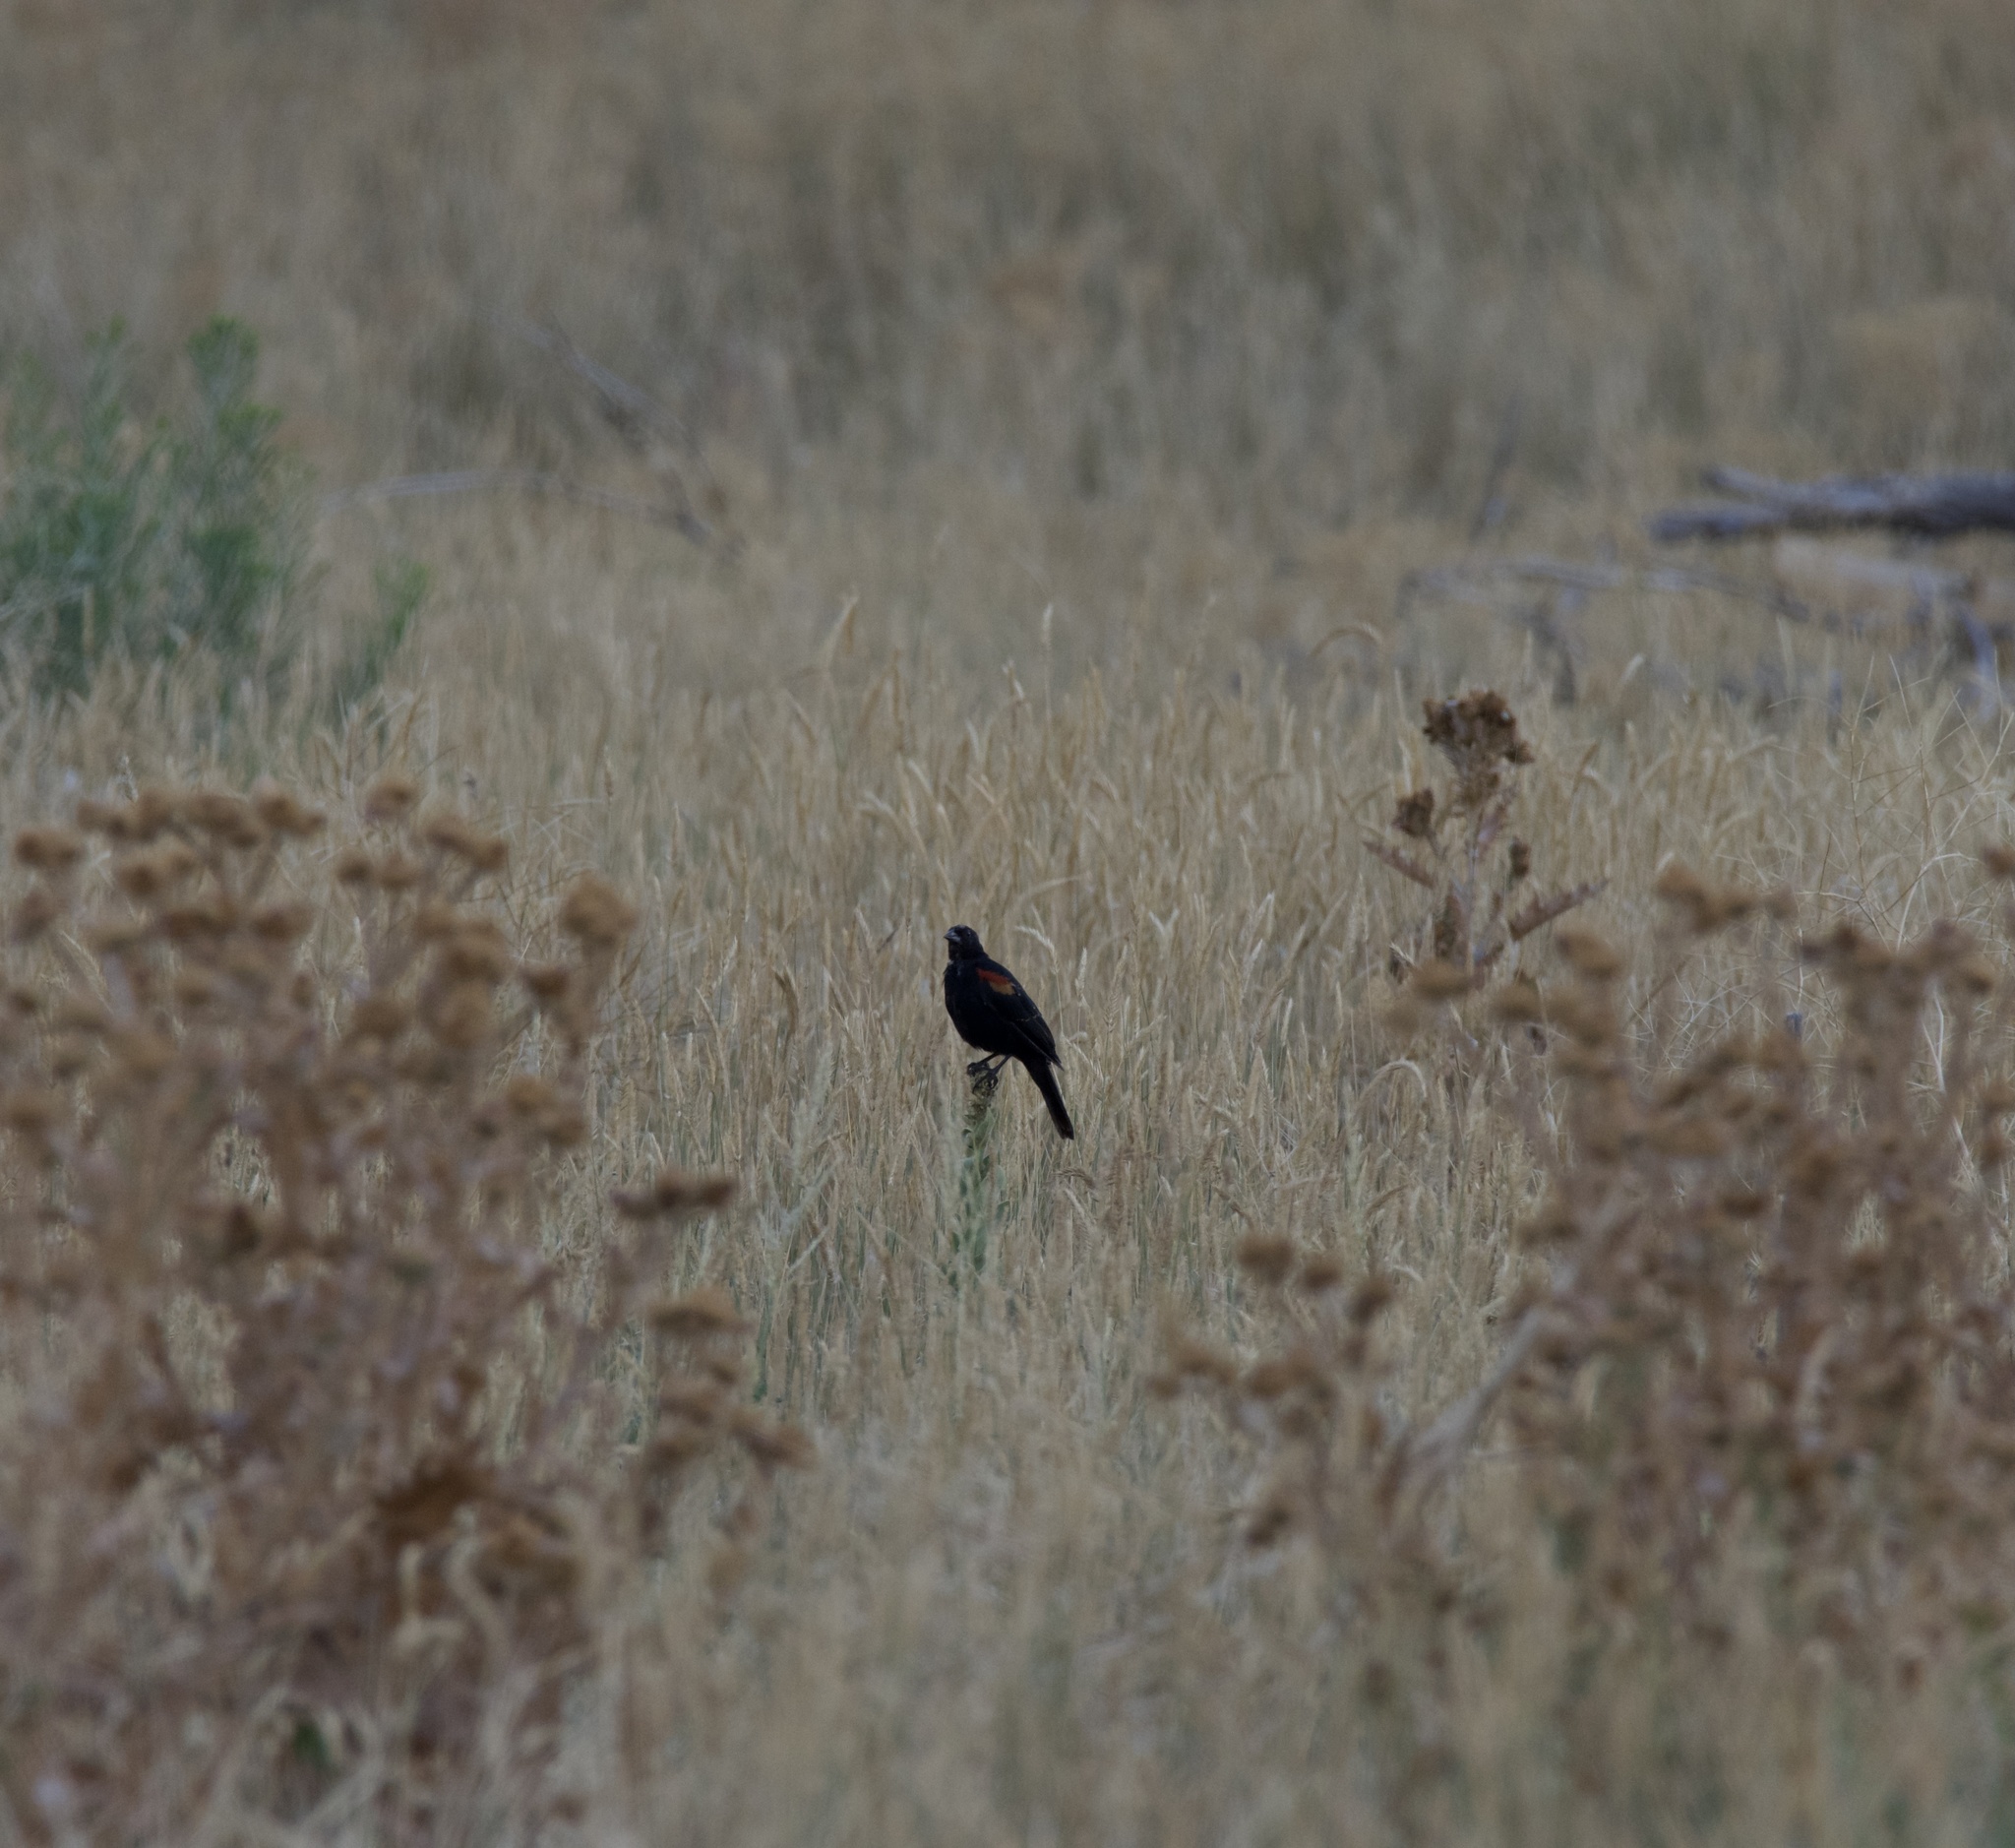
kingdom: Animalia
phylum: Chordata
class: Aves
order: Passeriformes
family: Icteridae
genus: Agelaius
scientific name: Agelaius phoeniceus
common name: Red-winged blackbird
